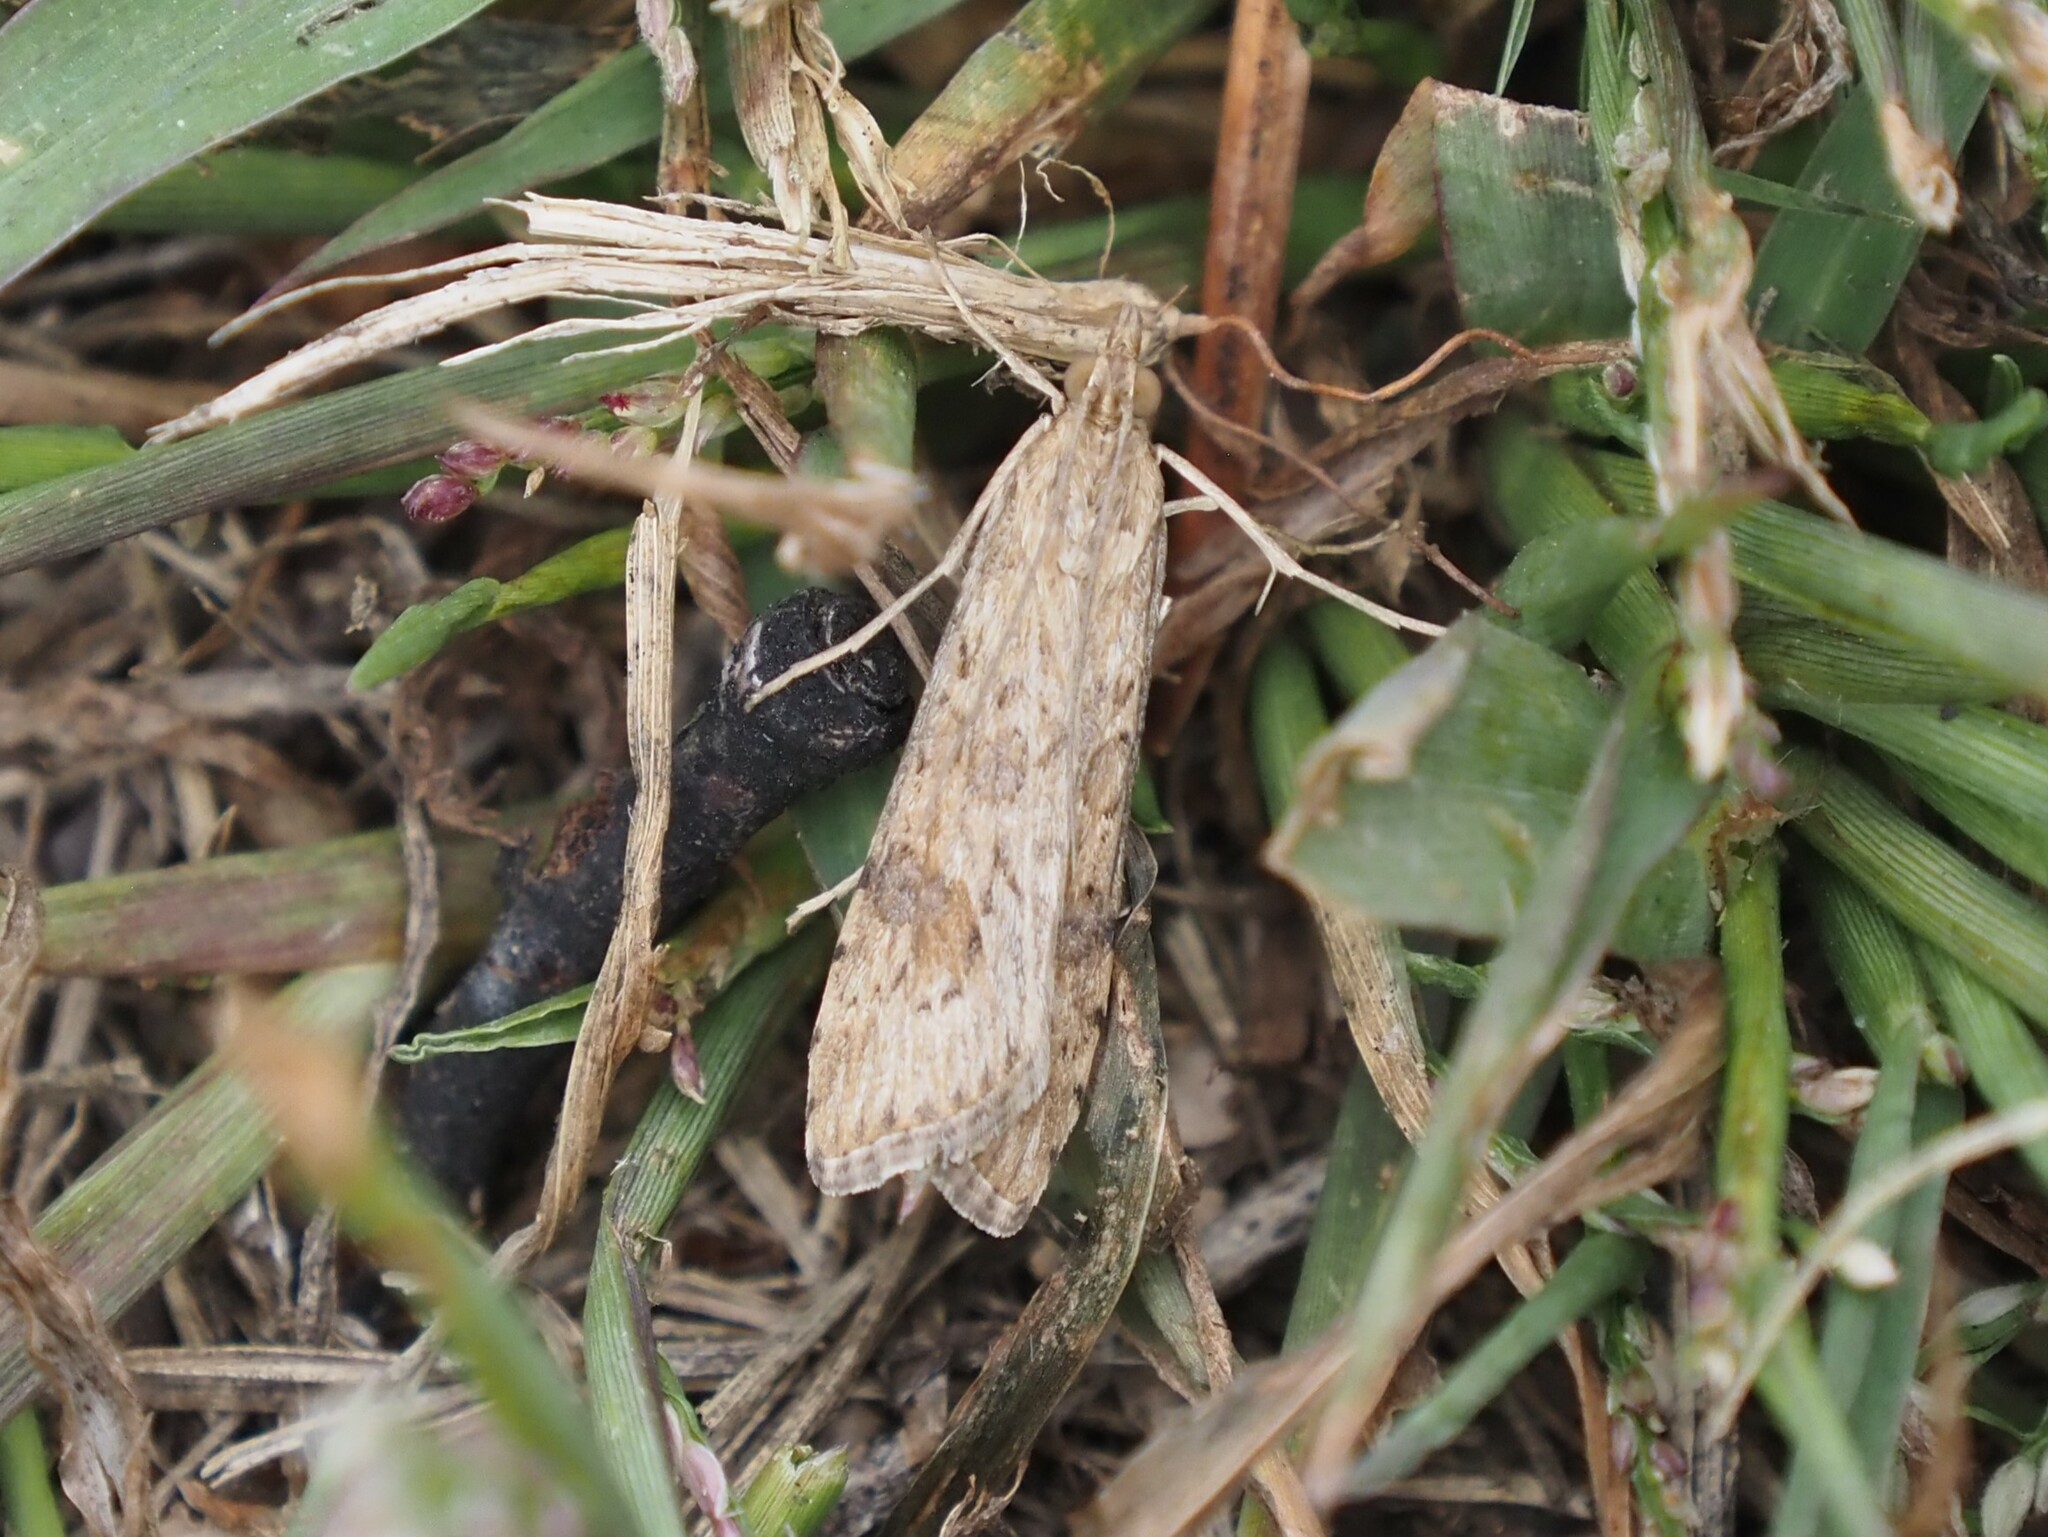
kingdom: Animalia
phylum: Arthropoda
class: Insecta
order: Lepidoptera
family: Crambidae
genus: Nomophila
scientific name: Nomophila nearctica
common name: American rush veneer
